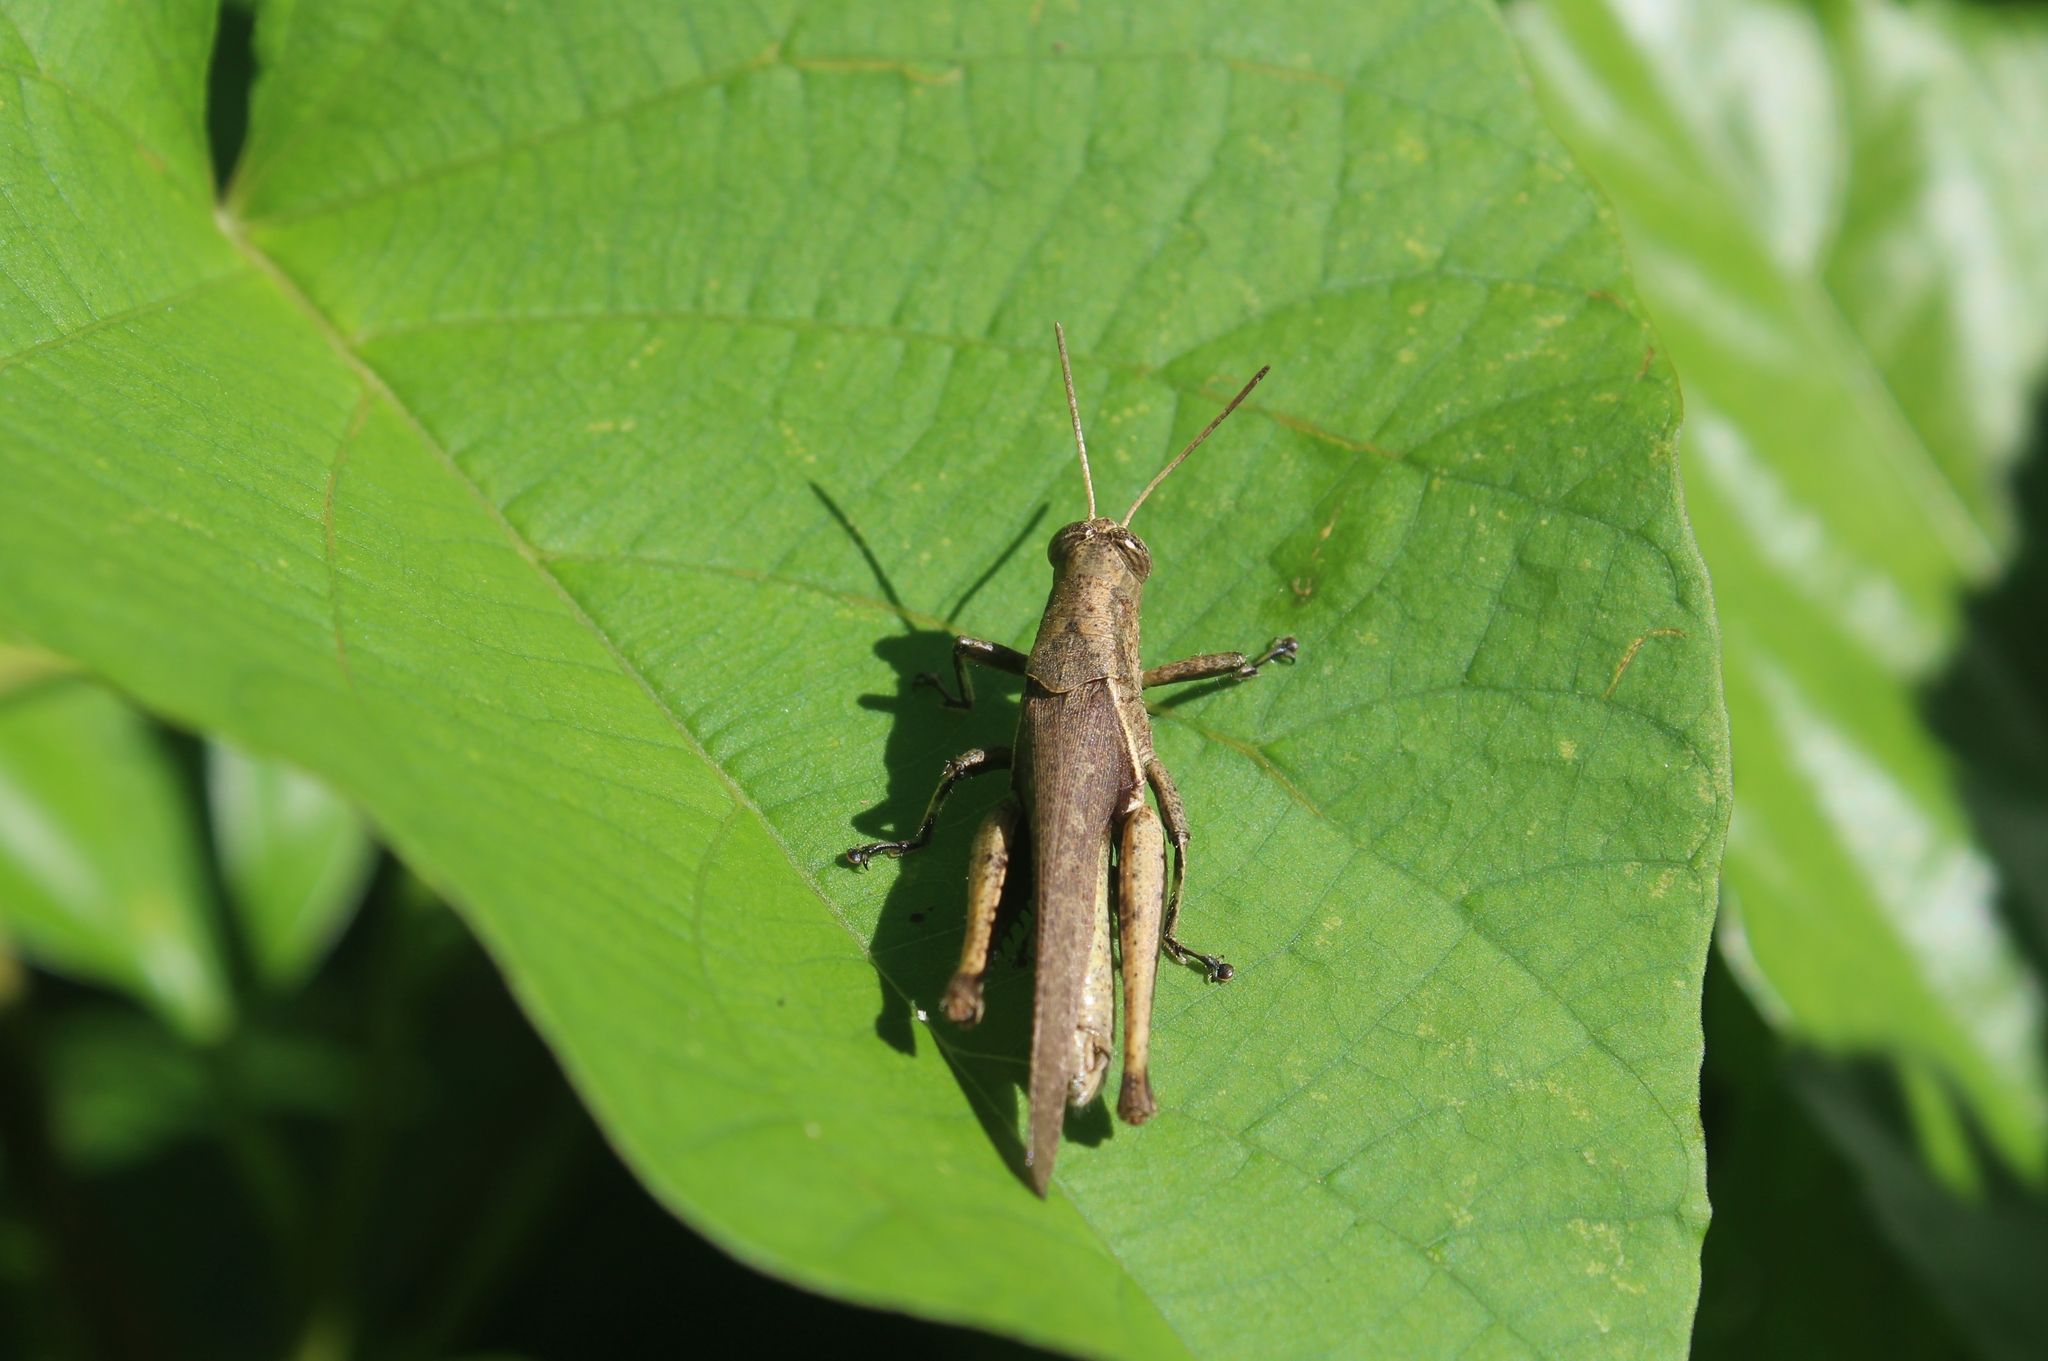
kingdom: Animalia
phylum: Arthropoda
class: Insecta
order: Orthoptera
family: Acrididae
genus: Abracris
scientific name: Abracris flavolineata
